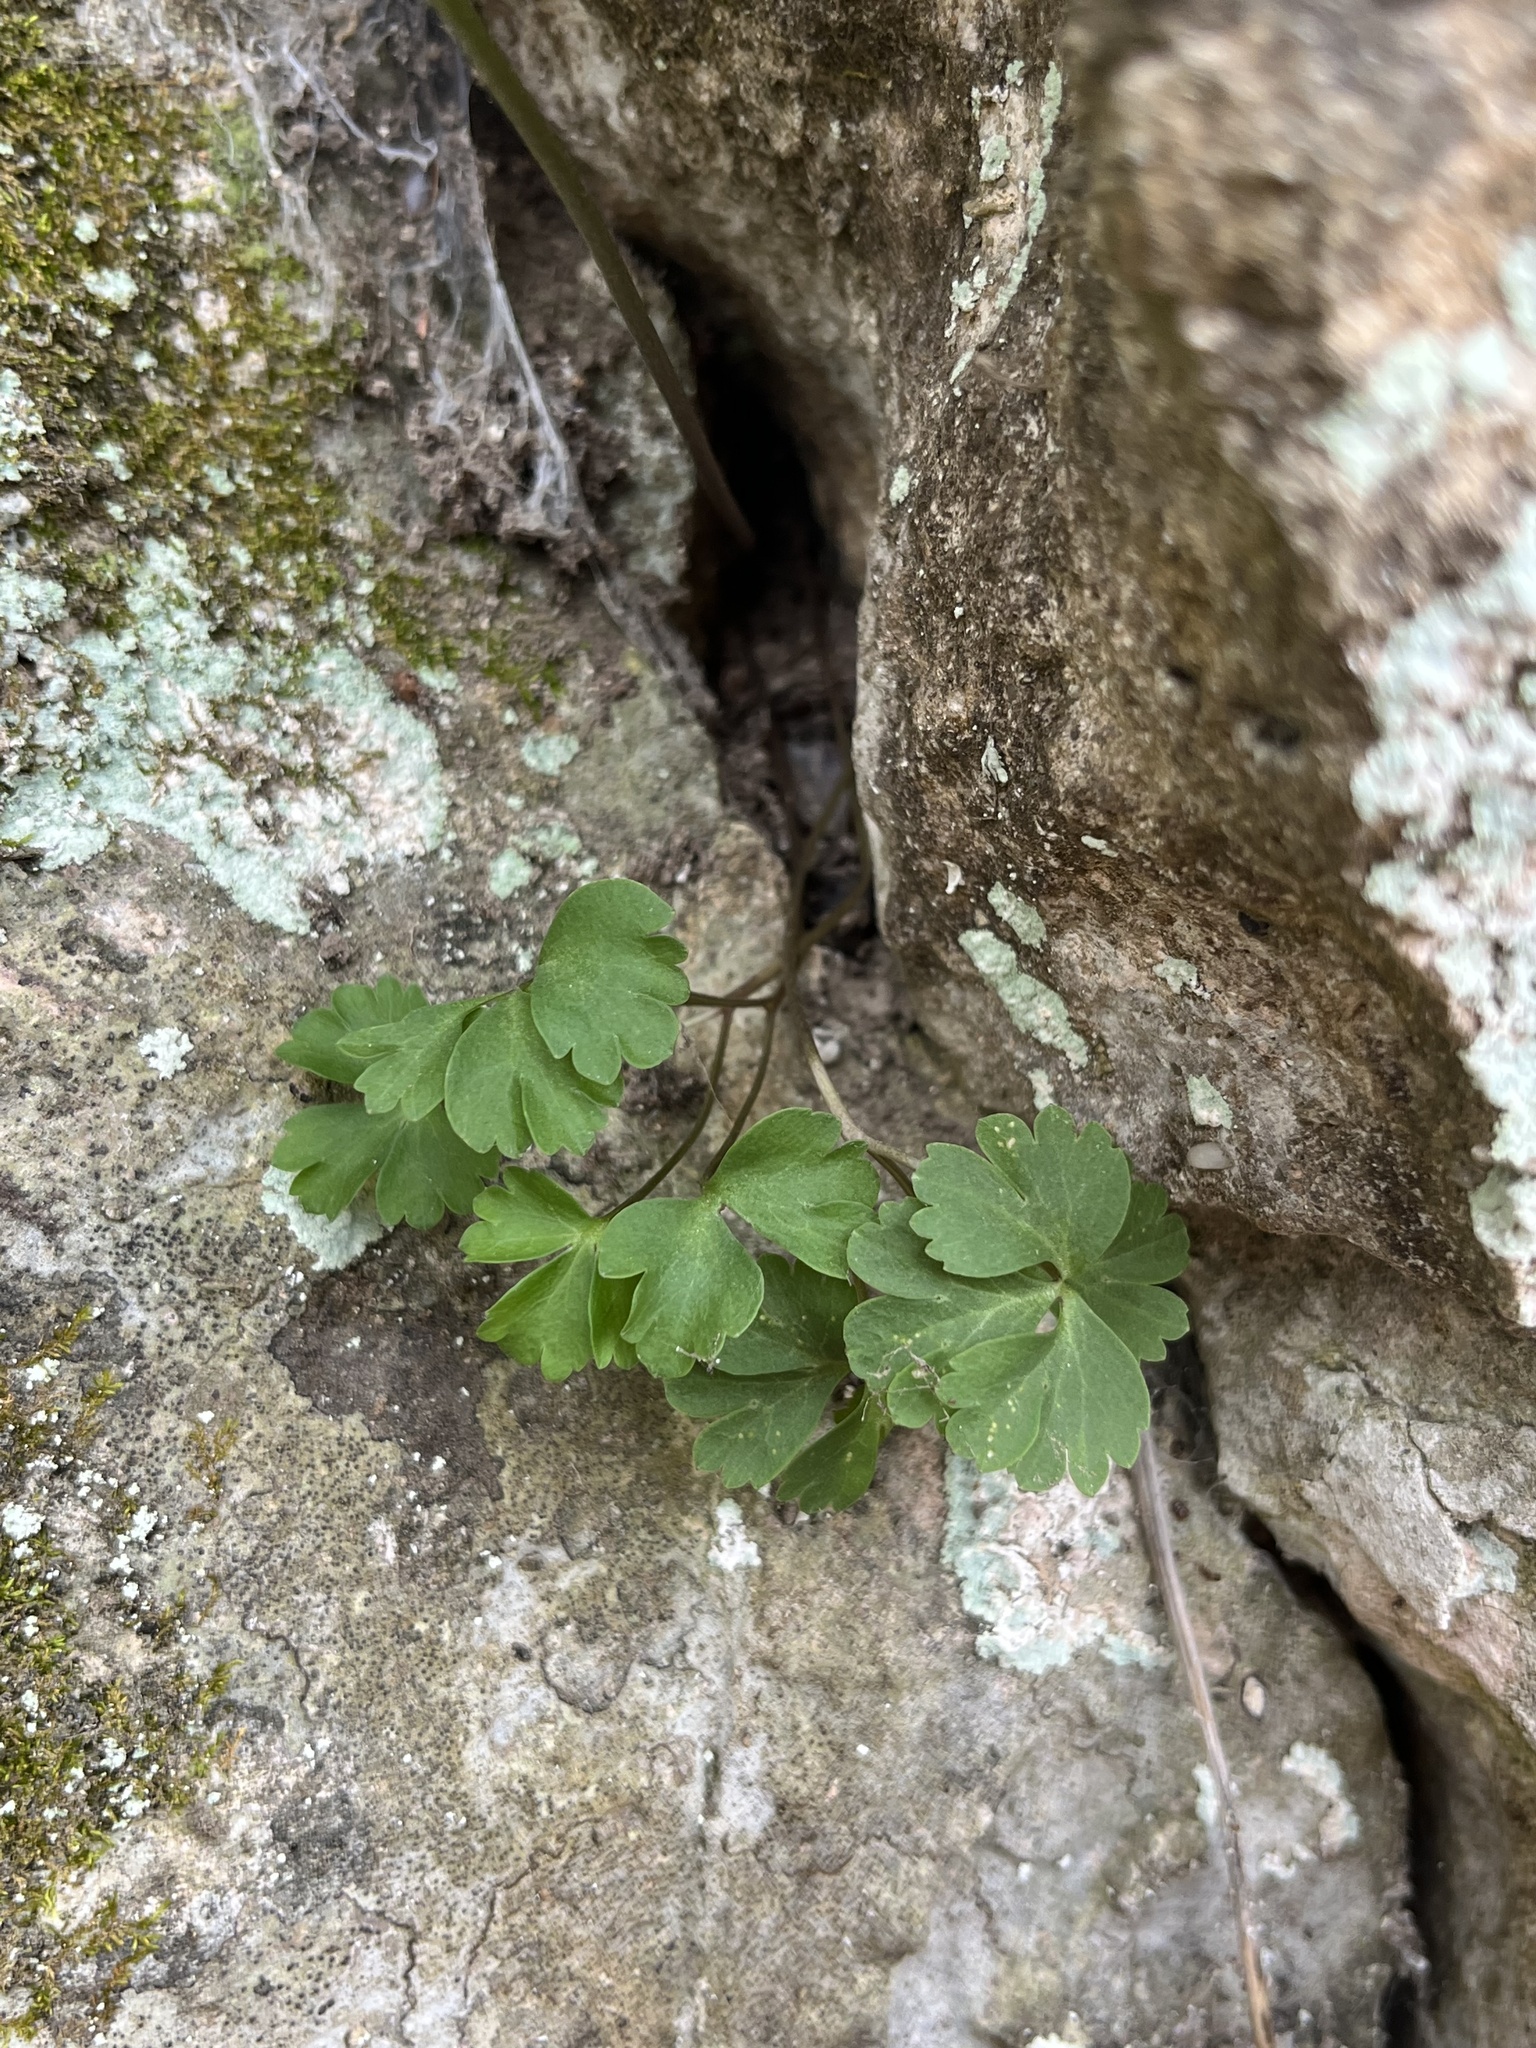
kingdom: Plantae
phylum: Tracheophyta
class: Magnoliopsida
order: Ranunculales
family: Ranunculaceae
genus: Anemone
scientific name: Anemone edwardsiana
